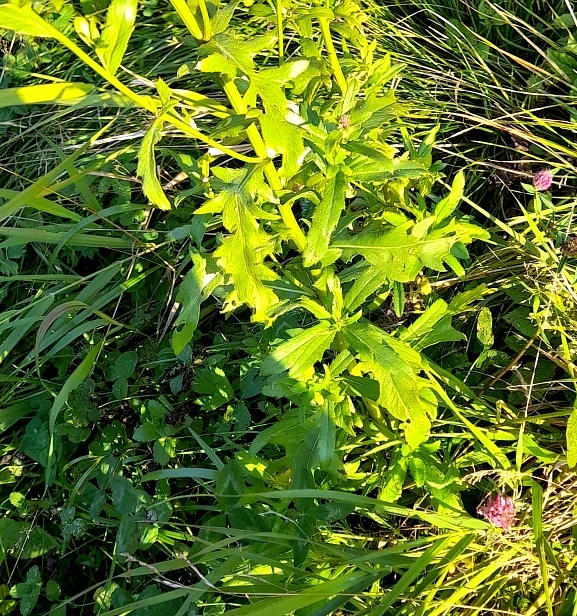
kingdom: Plantae
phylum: Tracheophyta
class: Magnoliopsida
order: Asterales
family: Asteraceae
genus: Cirsium
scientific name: Cirsium arvense
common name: Creeping thistle
